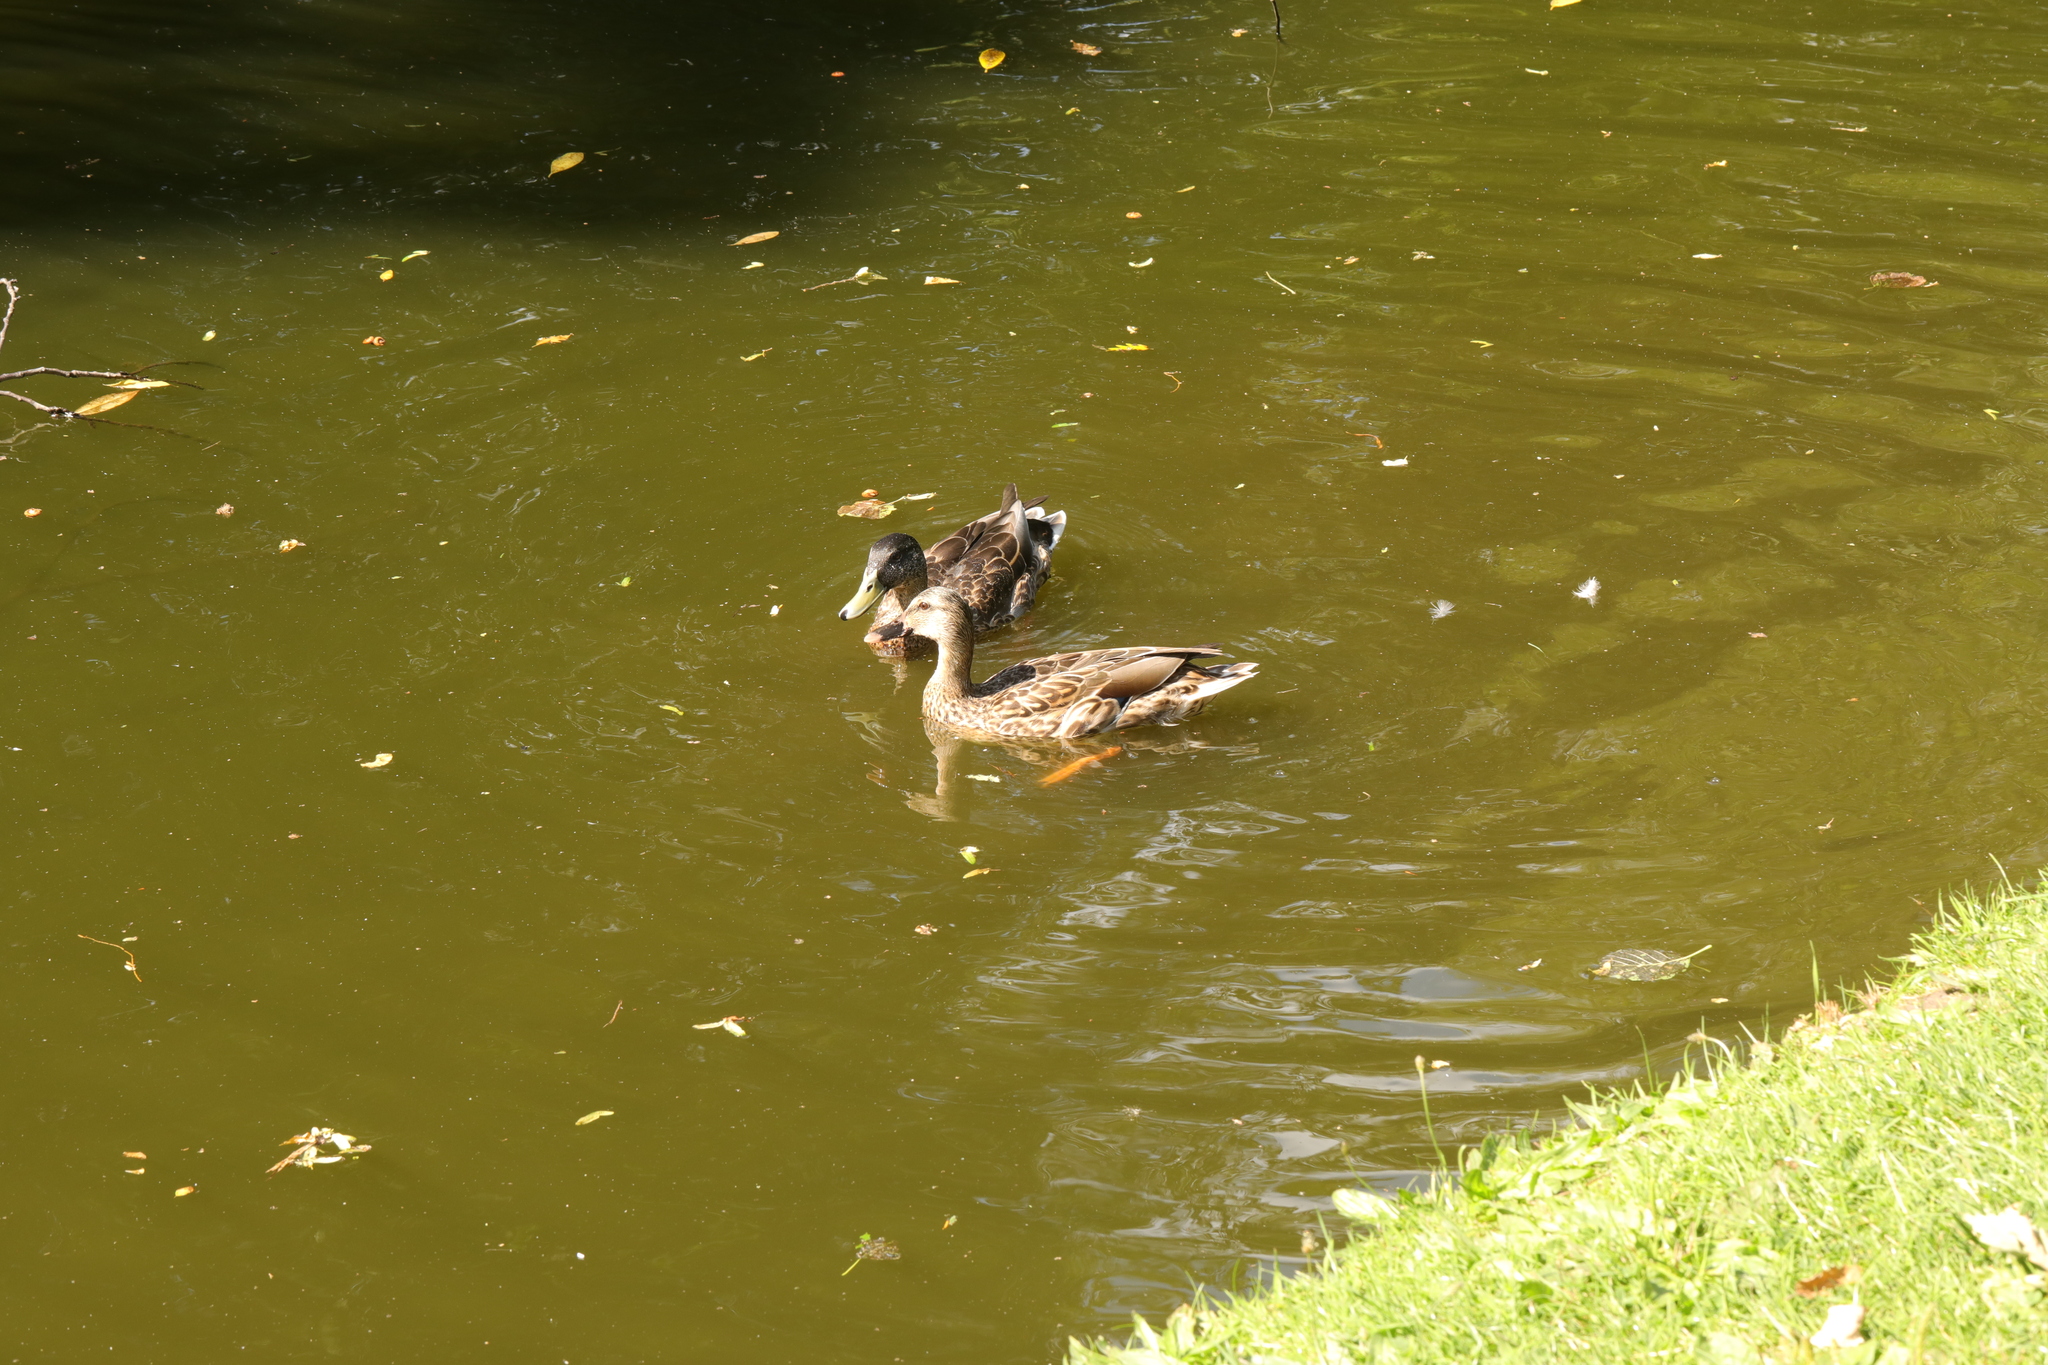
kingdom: Animalia
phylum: Chordata
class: Aves
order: Anseriformes
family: Anatidae
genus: Anas
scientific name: Anas platyrhynchos
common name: Mallard
